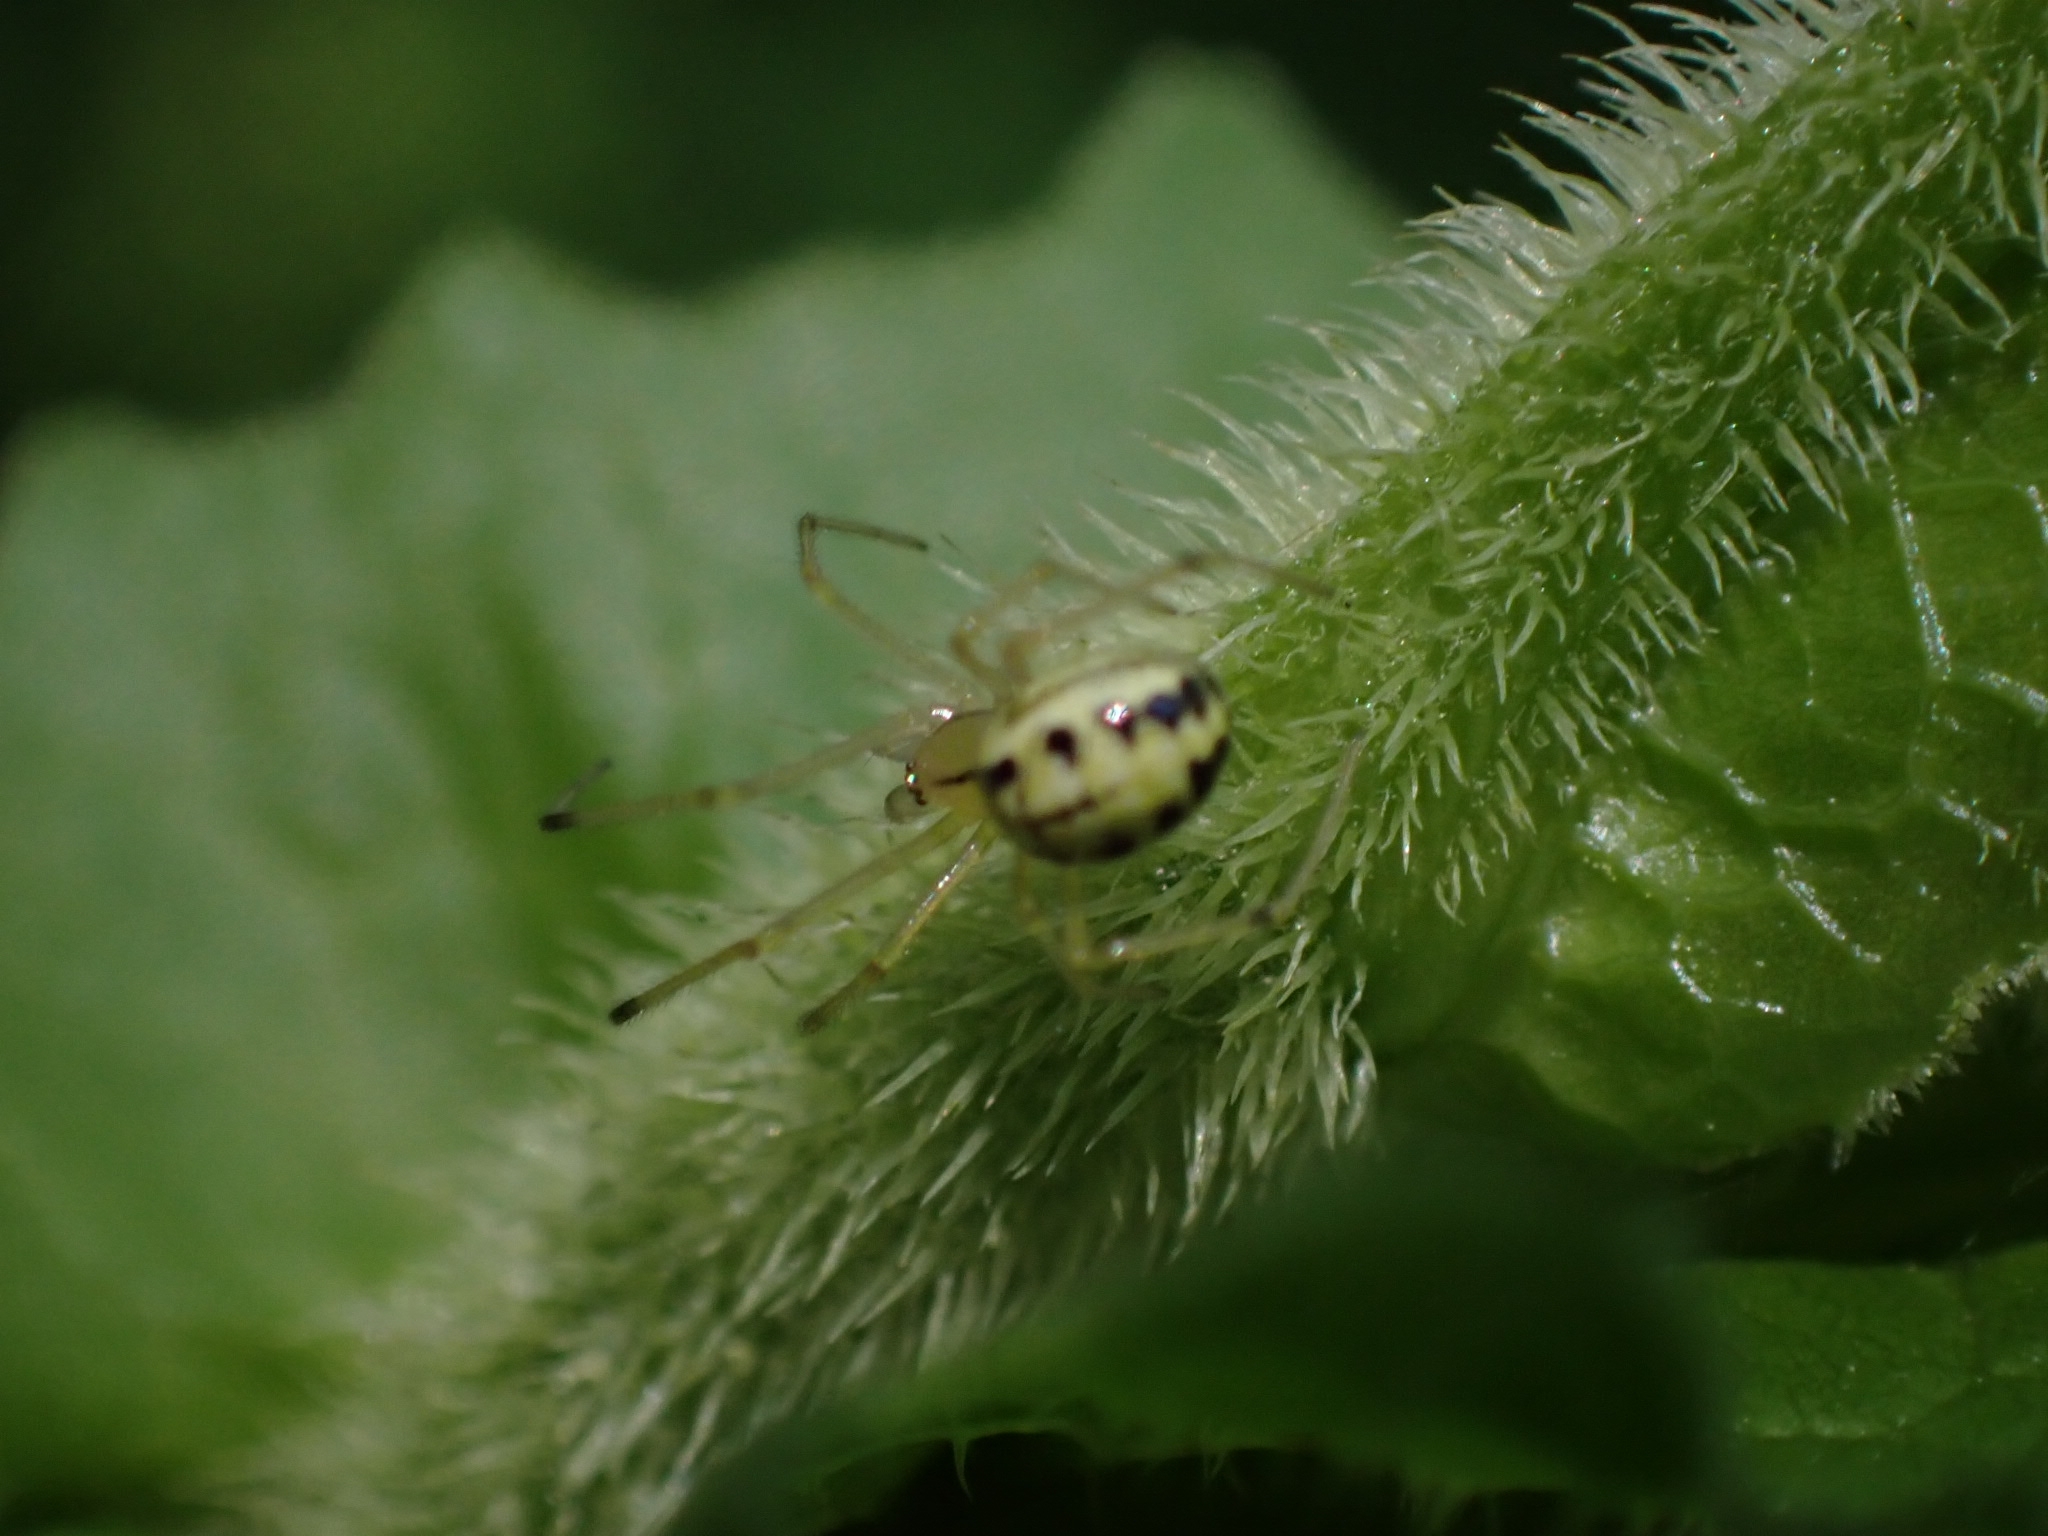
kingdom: Animalia
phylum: Arthropoda
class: Arachnida
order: Araneae
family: Theridiidae
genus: Enoplognatha
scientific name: Enoplognatha ovata
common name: Common candy-striped spider
